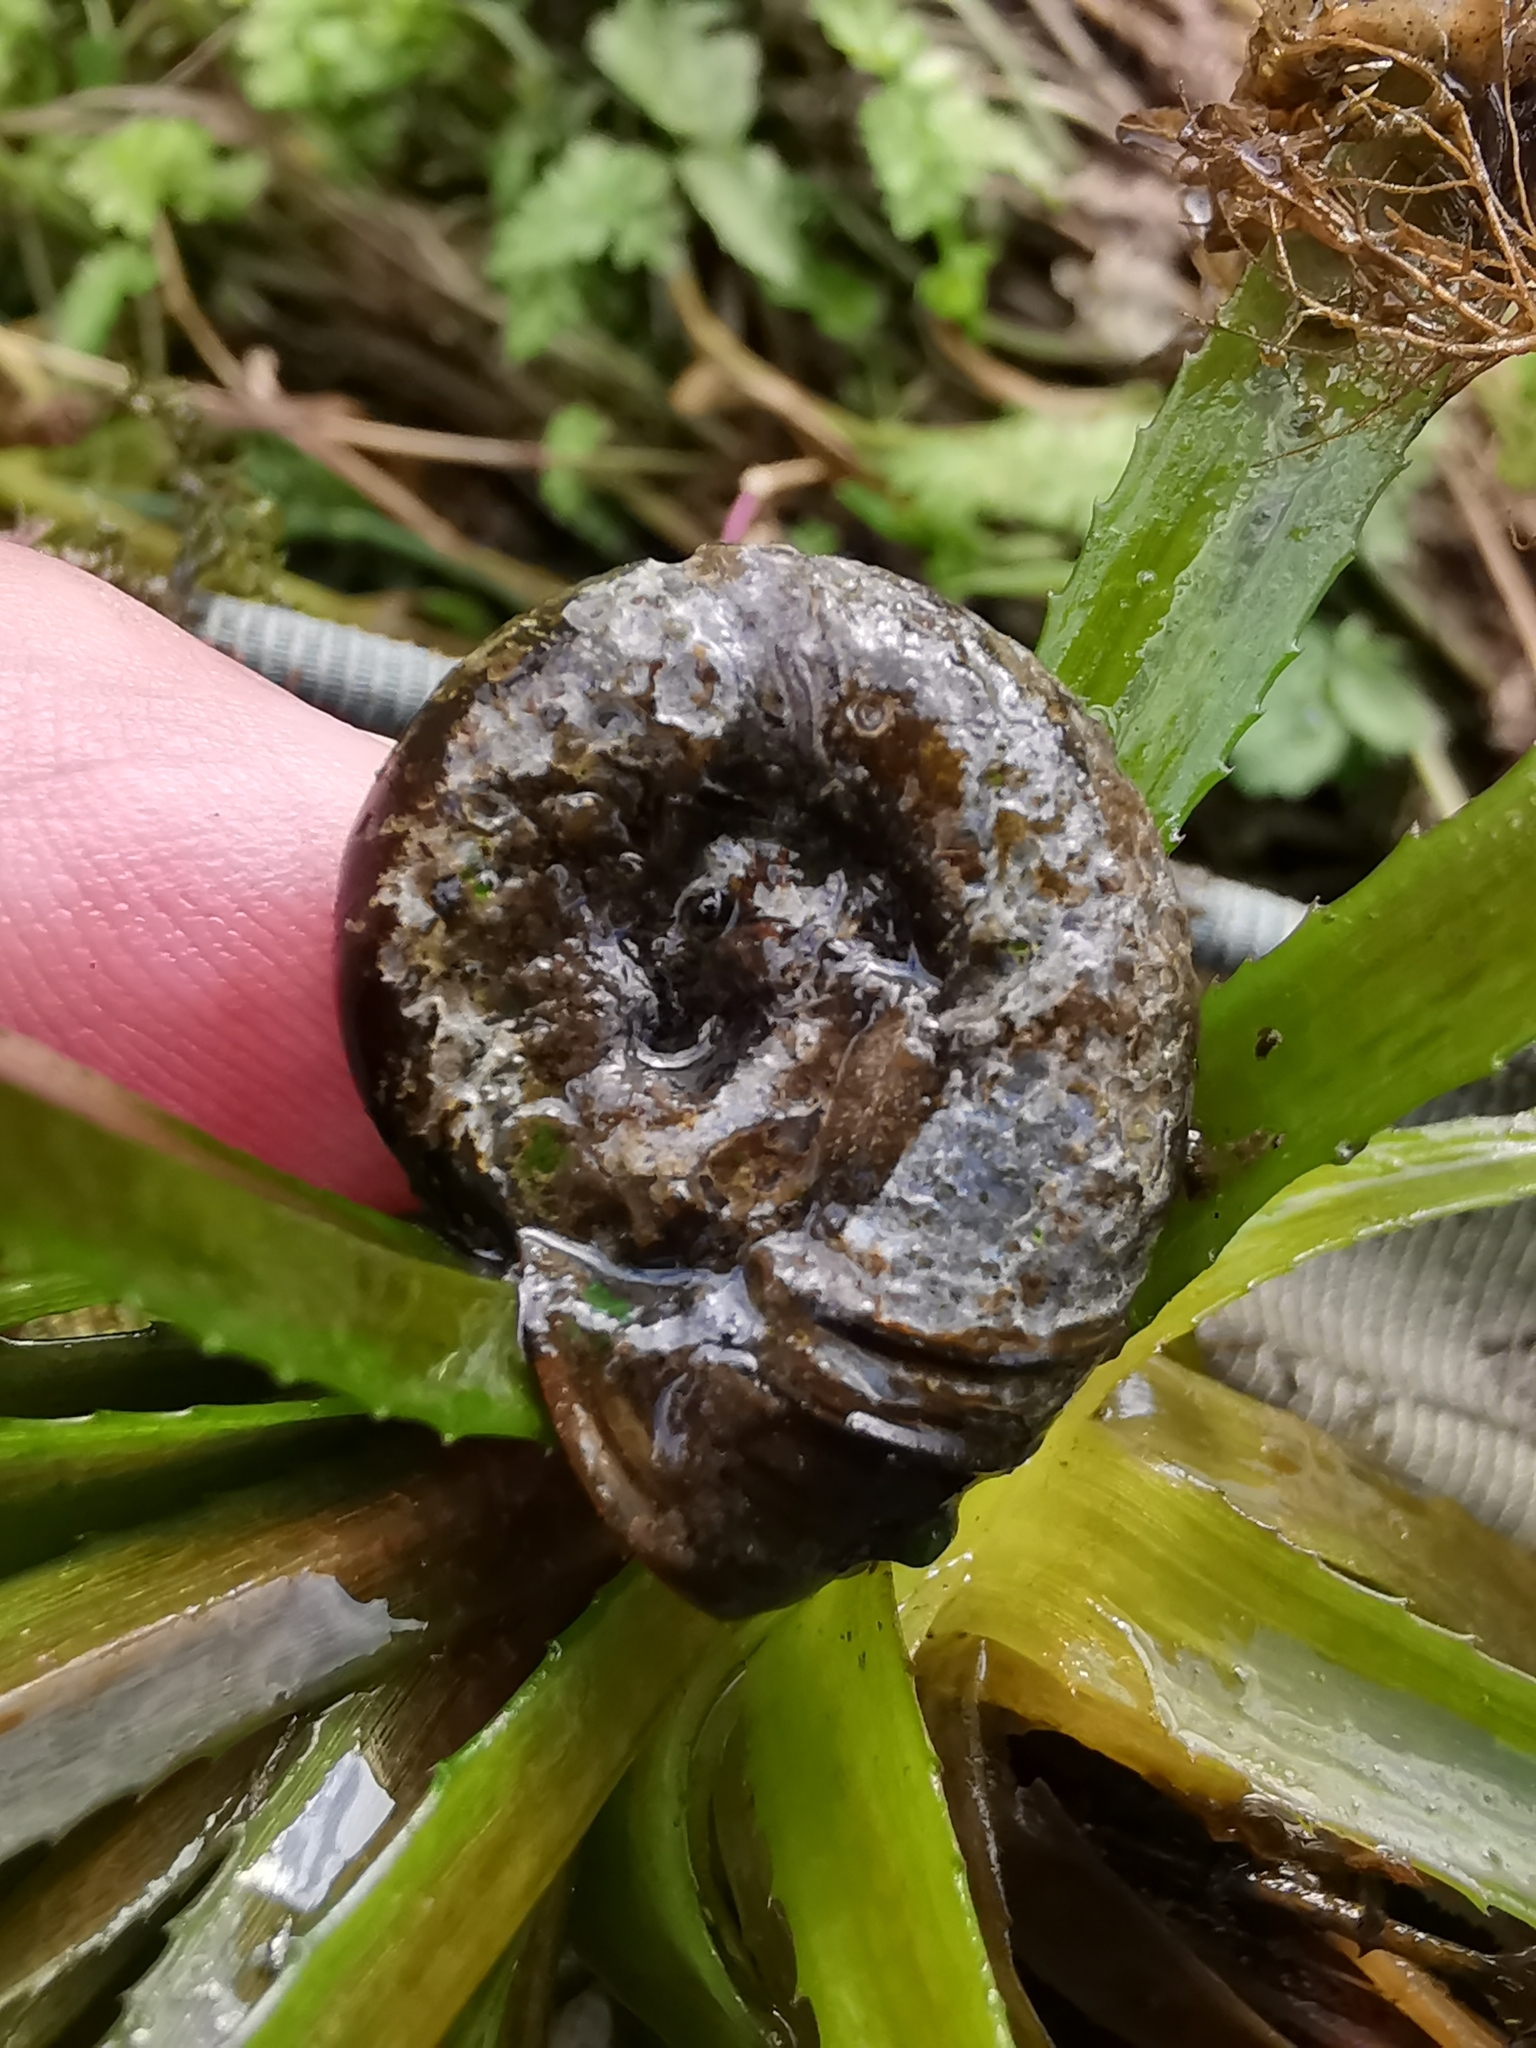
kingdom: Animalia
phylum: Mollusca
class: Gastropoda
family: Planorbidae
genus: Planorbarius
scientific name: Planorbarius corneus
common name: Great ramshorn
